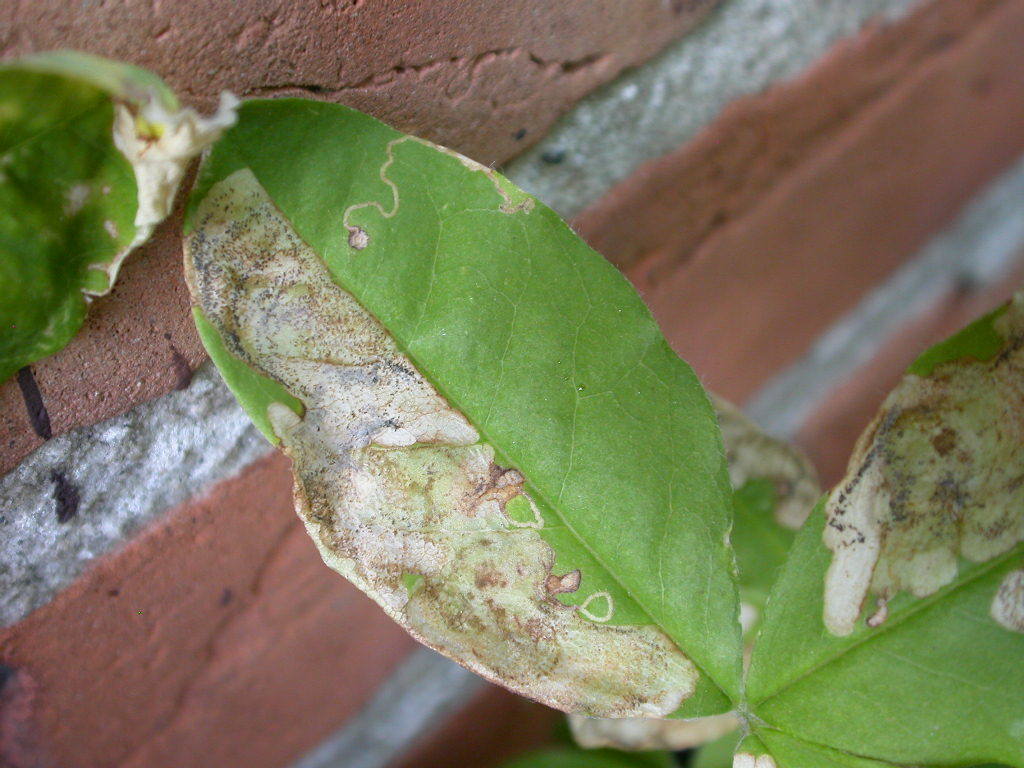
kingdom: Animalia
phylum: Arthropoda
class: Insecta
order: Lepidoptera
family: Lyonetiidae
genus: Leucoptera
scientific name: Leucoptera laburnella
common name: Laburnum leaf miner
